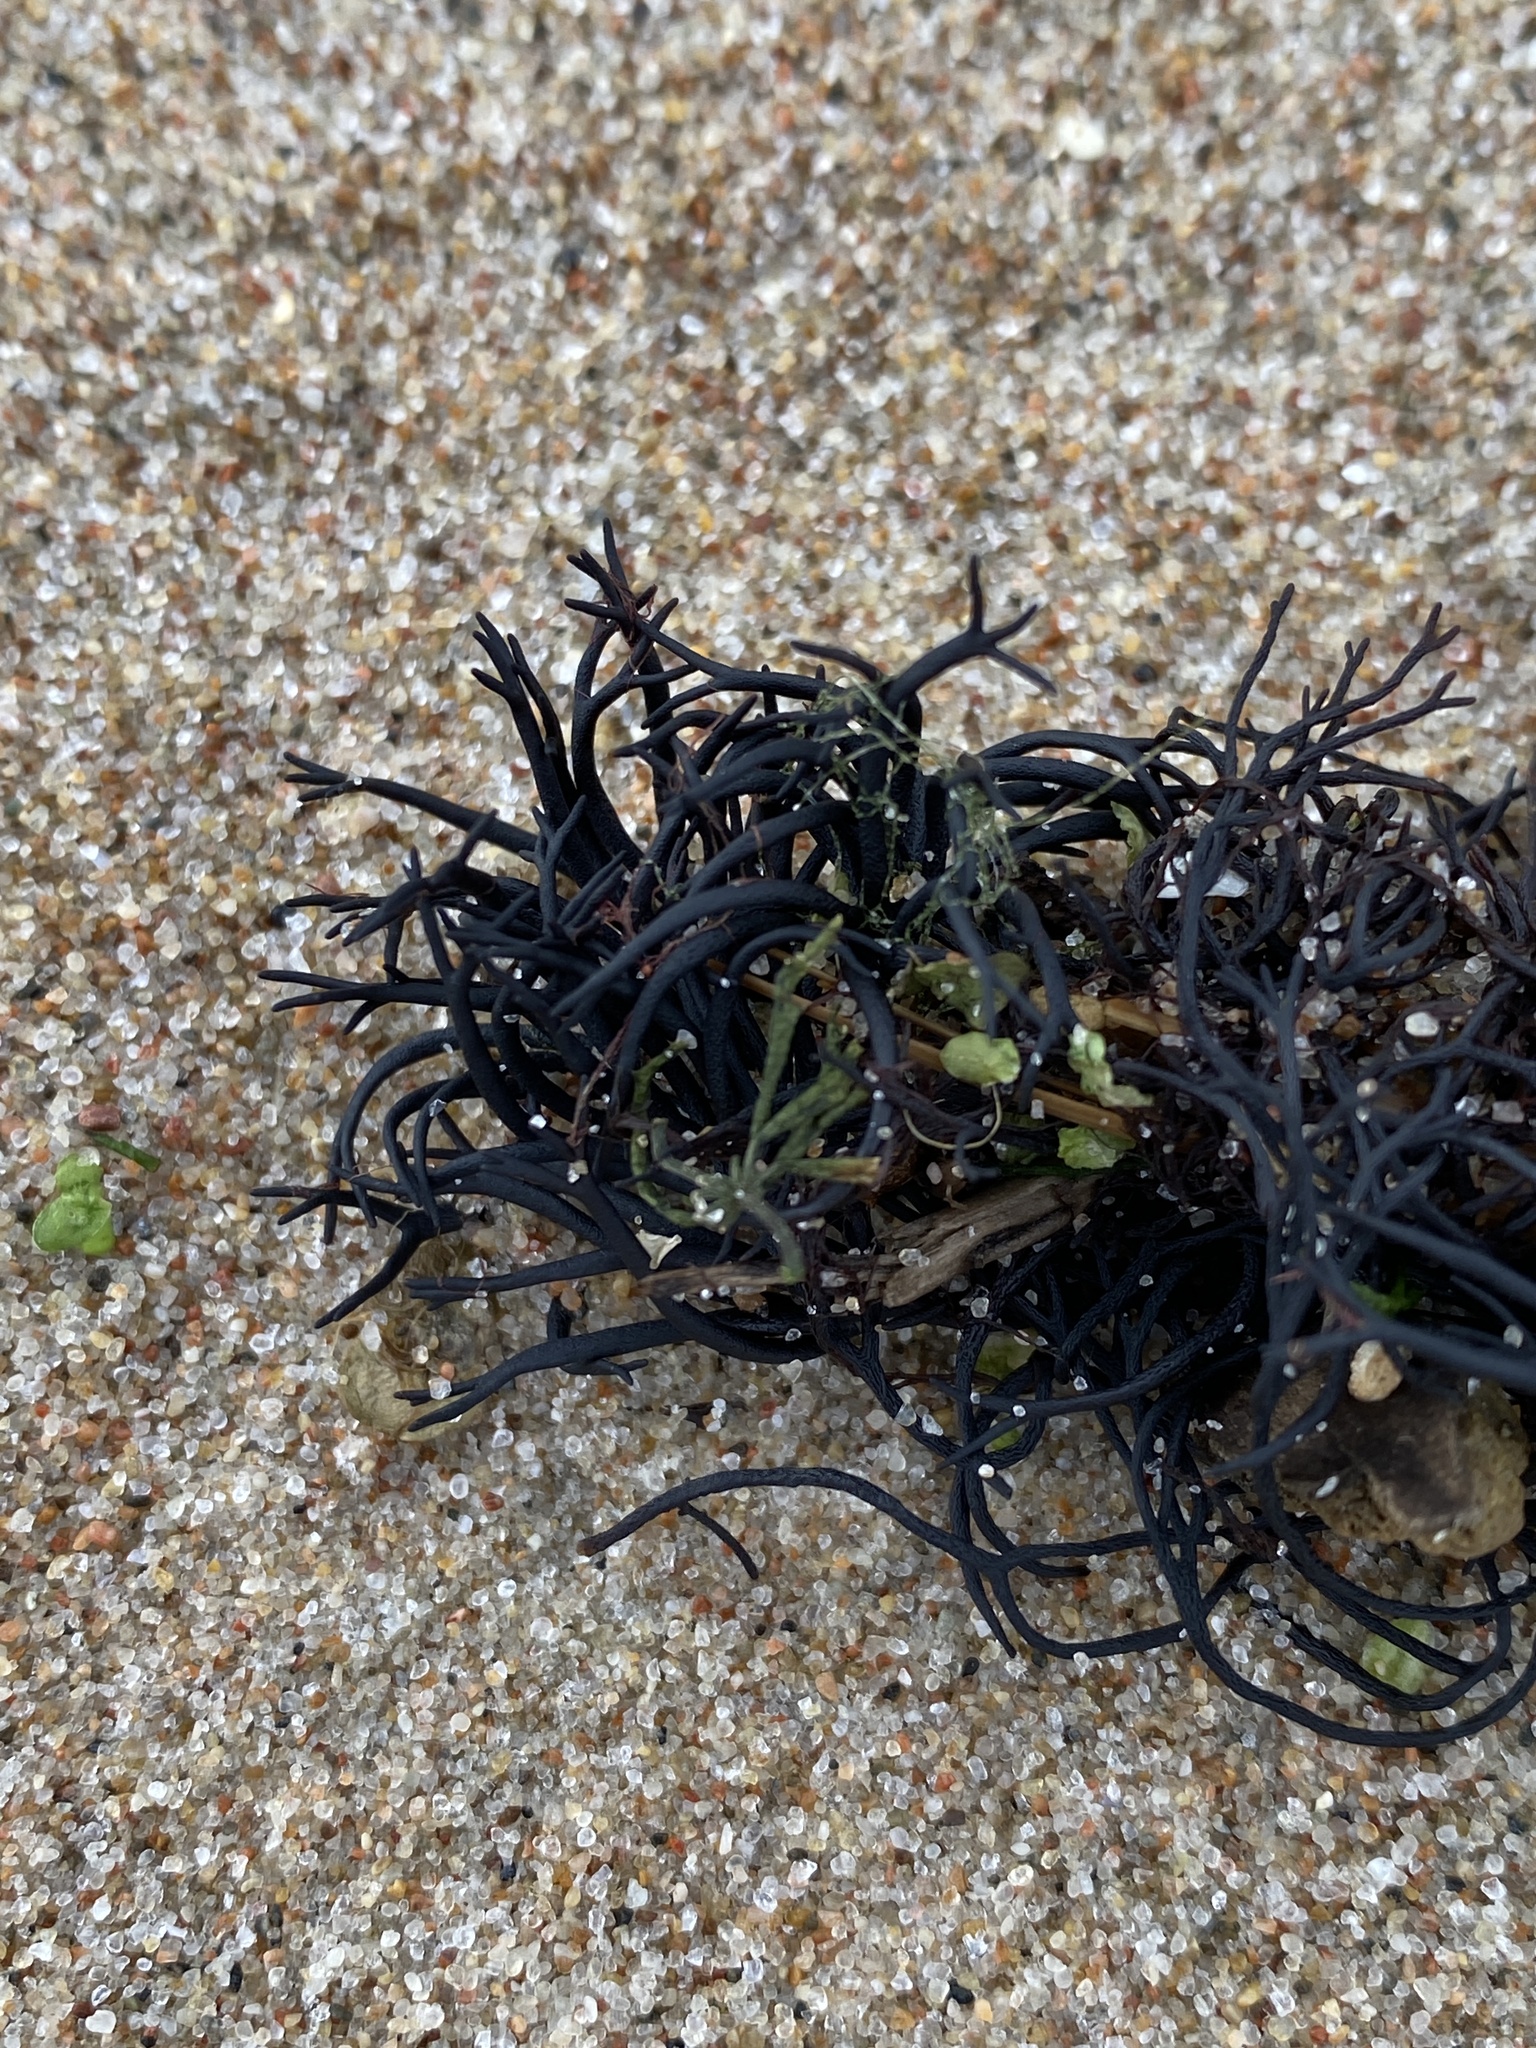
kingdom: Plantae
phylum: Rhodophyta
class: Florideophyceae
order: Gigartinales
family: Furcellariaceae
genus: Furcellaria
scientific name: Furcellaria lumbricalis
